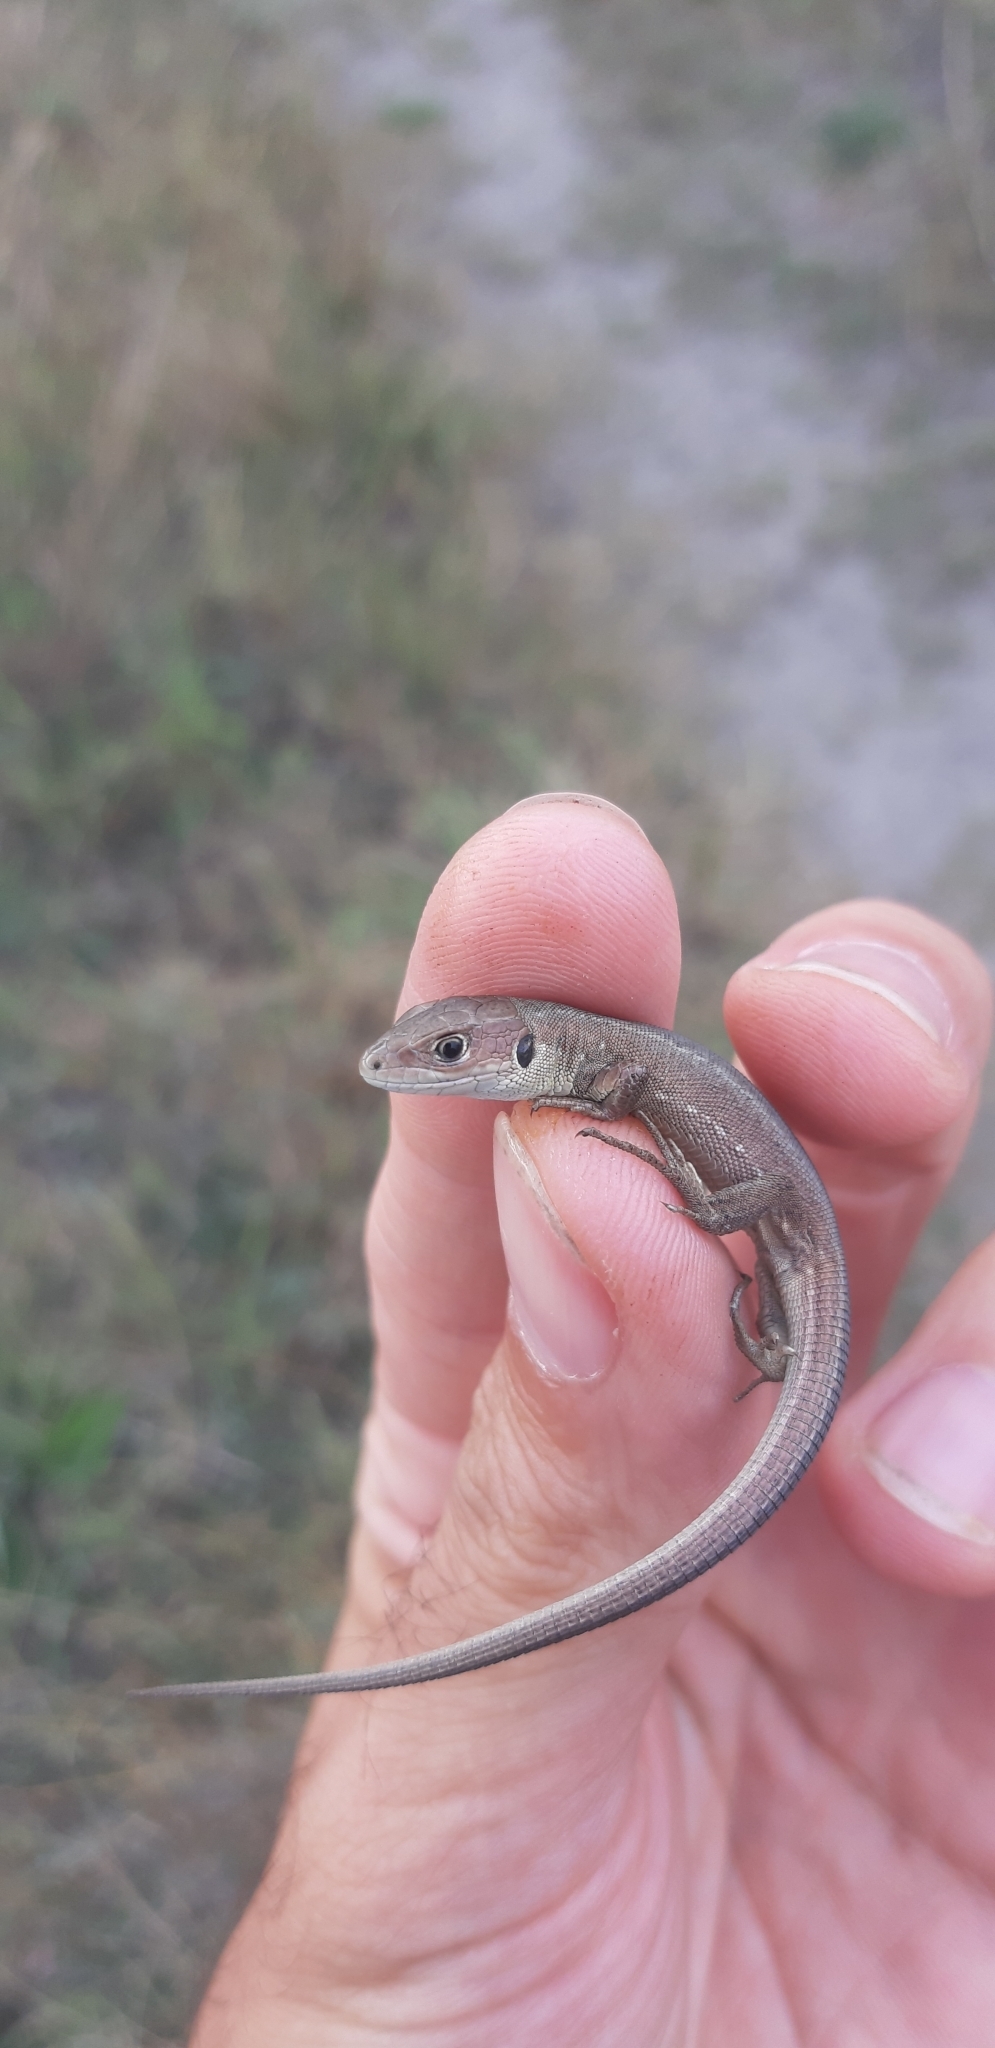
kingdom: Animalia
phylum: Chordata
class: Squamata
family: Lacertidae
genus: Lacerta
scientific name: Lacerta viridis
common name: European green lizard
